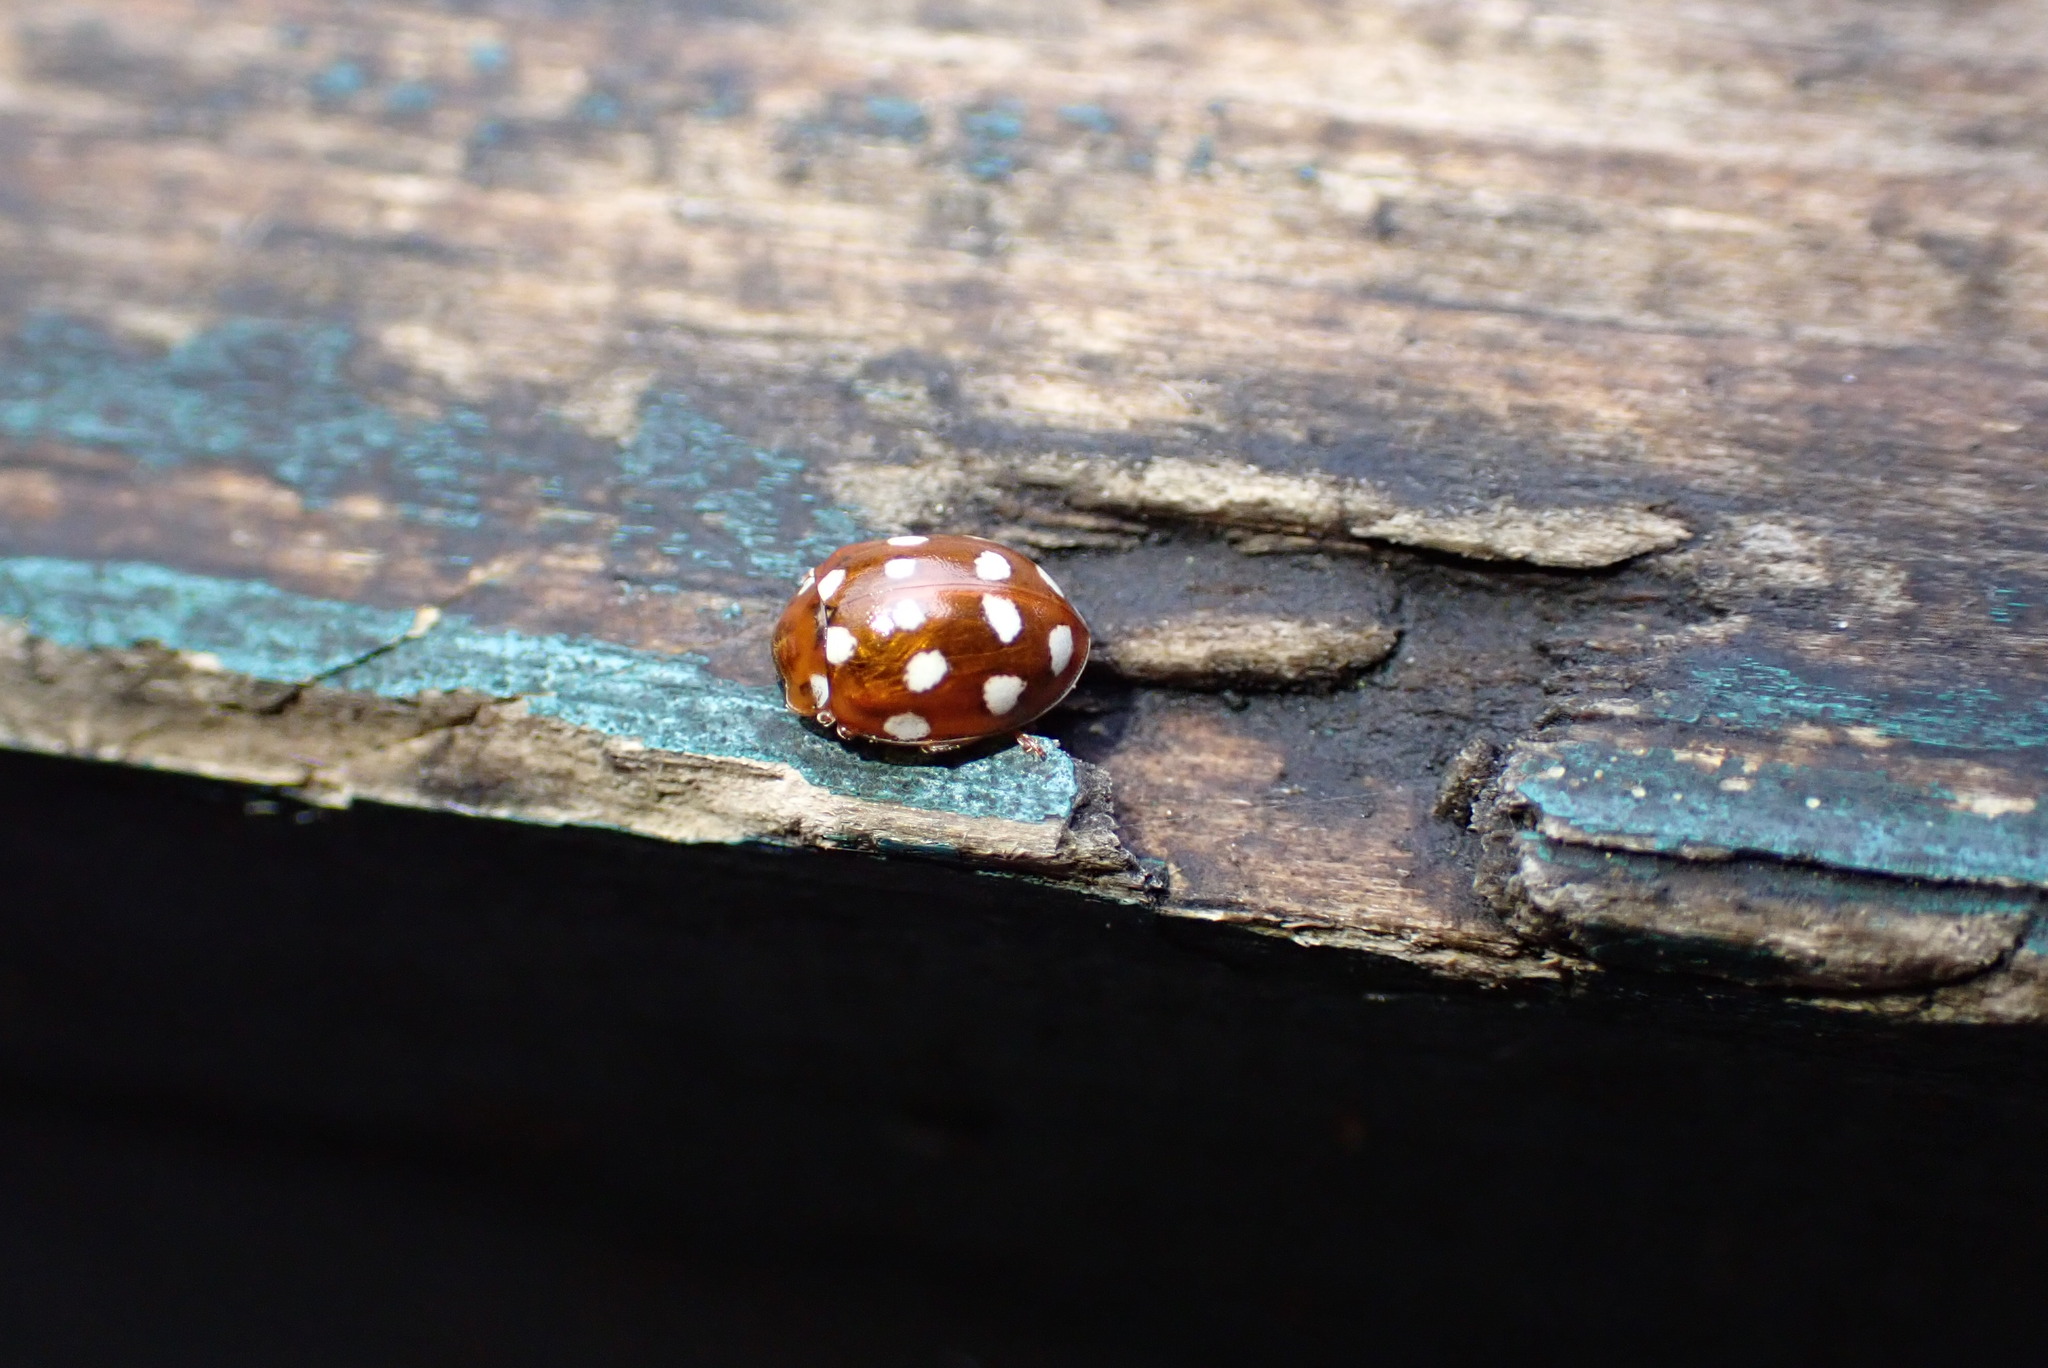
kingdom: Animalia
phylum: Arthropoda
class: Insecta
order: Coleoptera
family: Coccinellidae
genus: Calvia
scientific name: Calvia quatuordecimguttata
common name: Cream-spot ladybird
